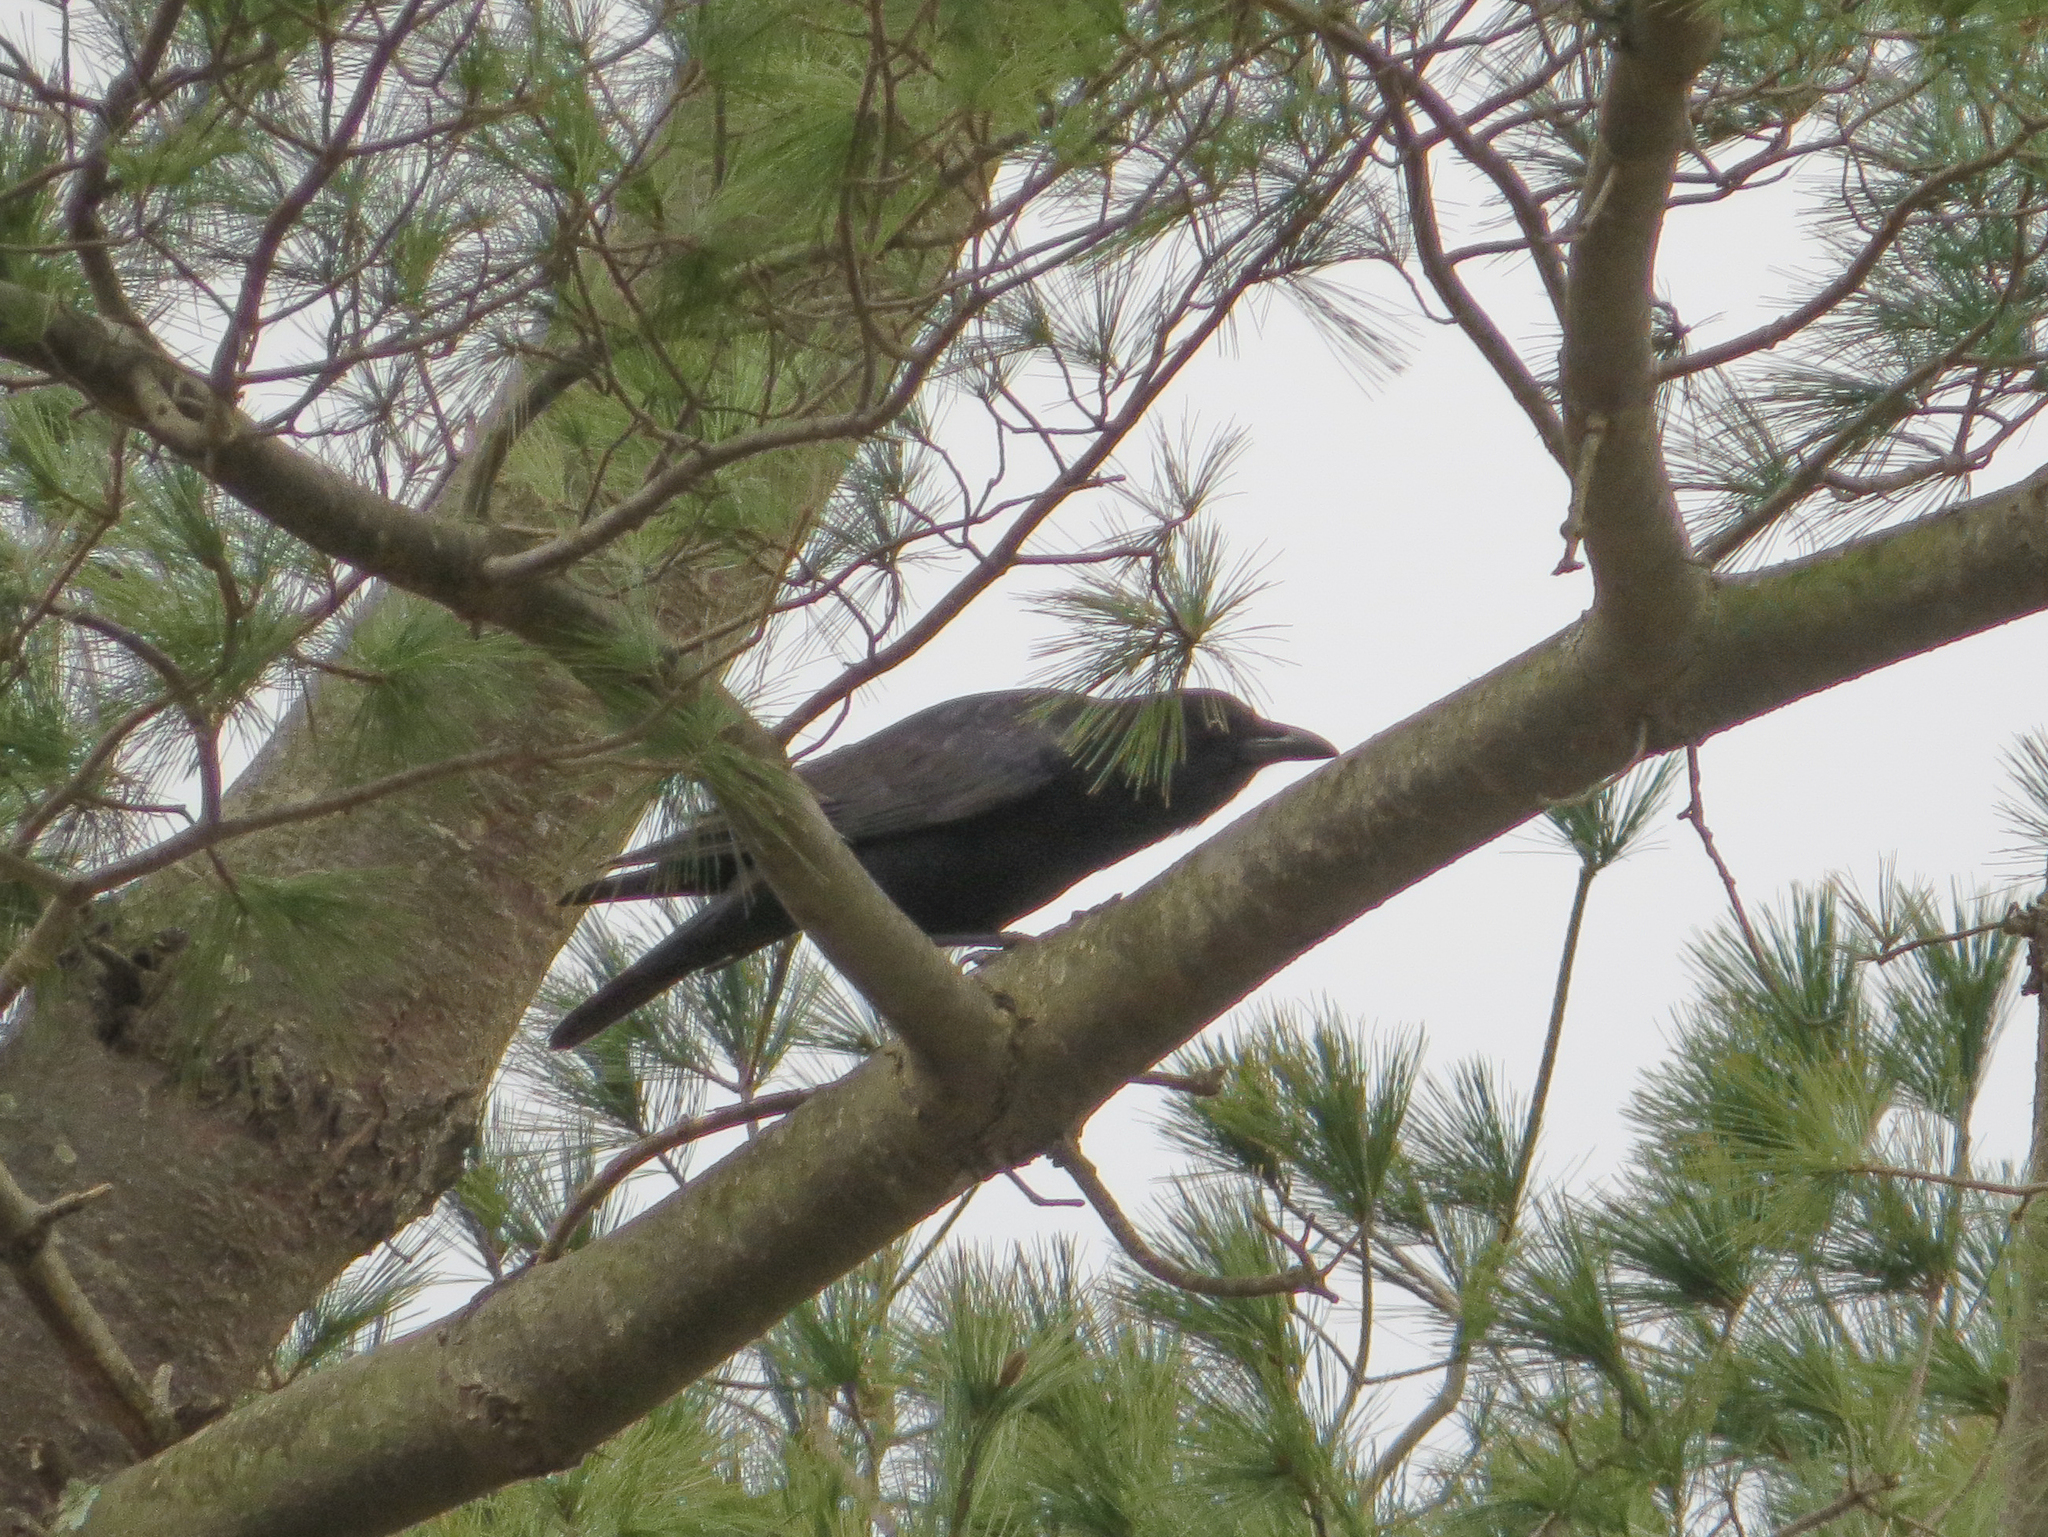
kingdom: Plantae
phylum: Tracheophyta
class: Pinopsida
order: Pinales
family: Pinaceae
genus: Pinus
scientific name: Pinus strobus
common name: Weymouth pine
